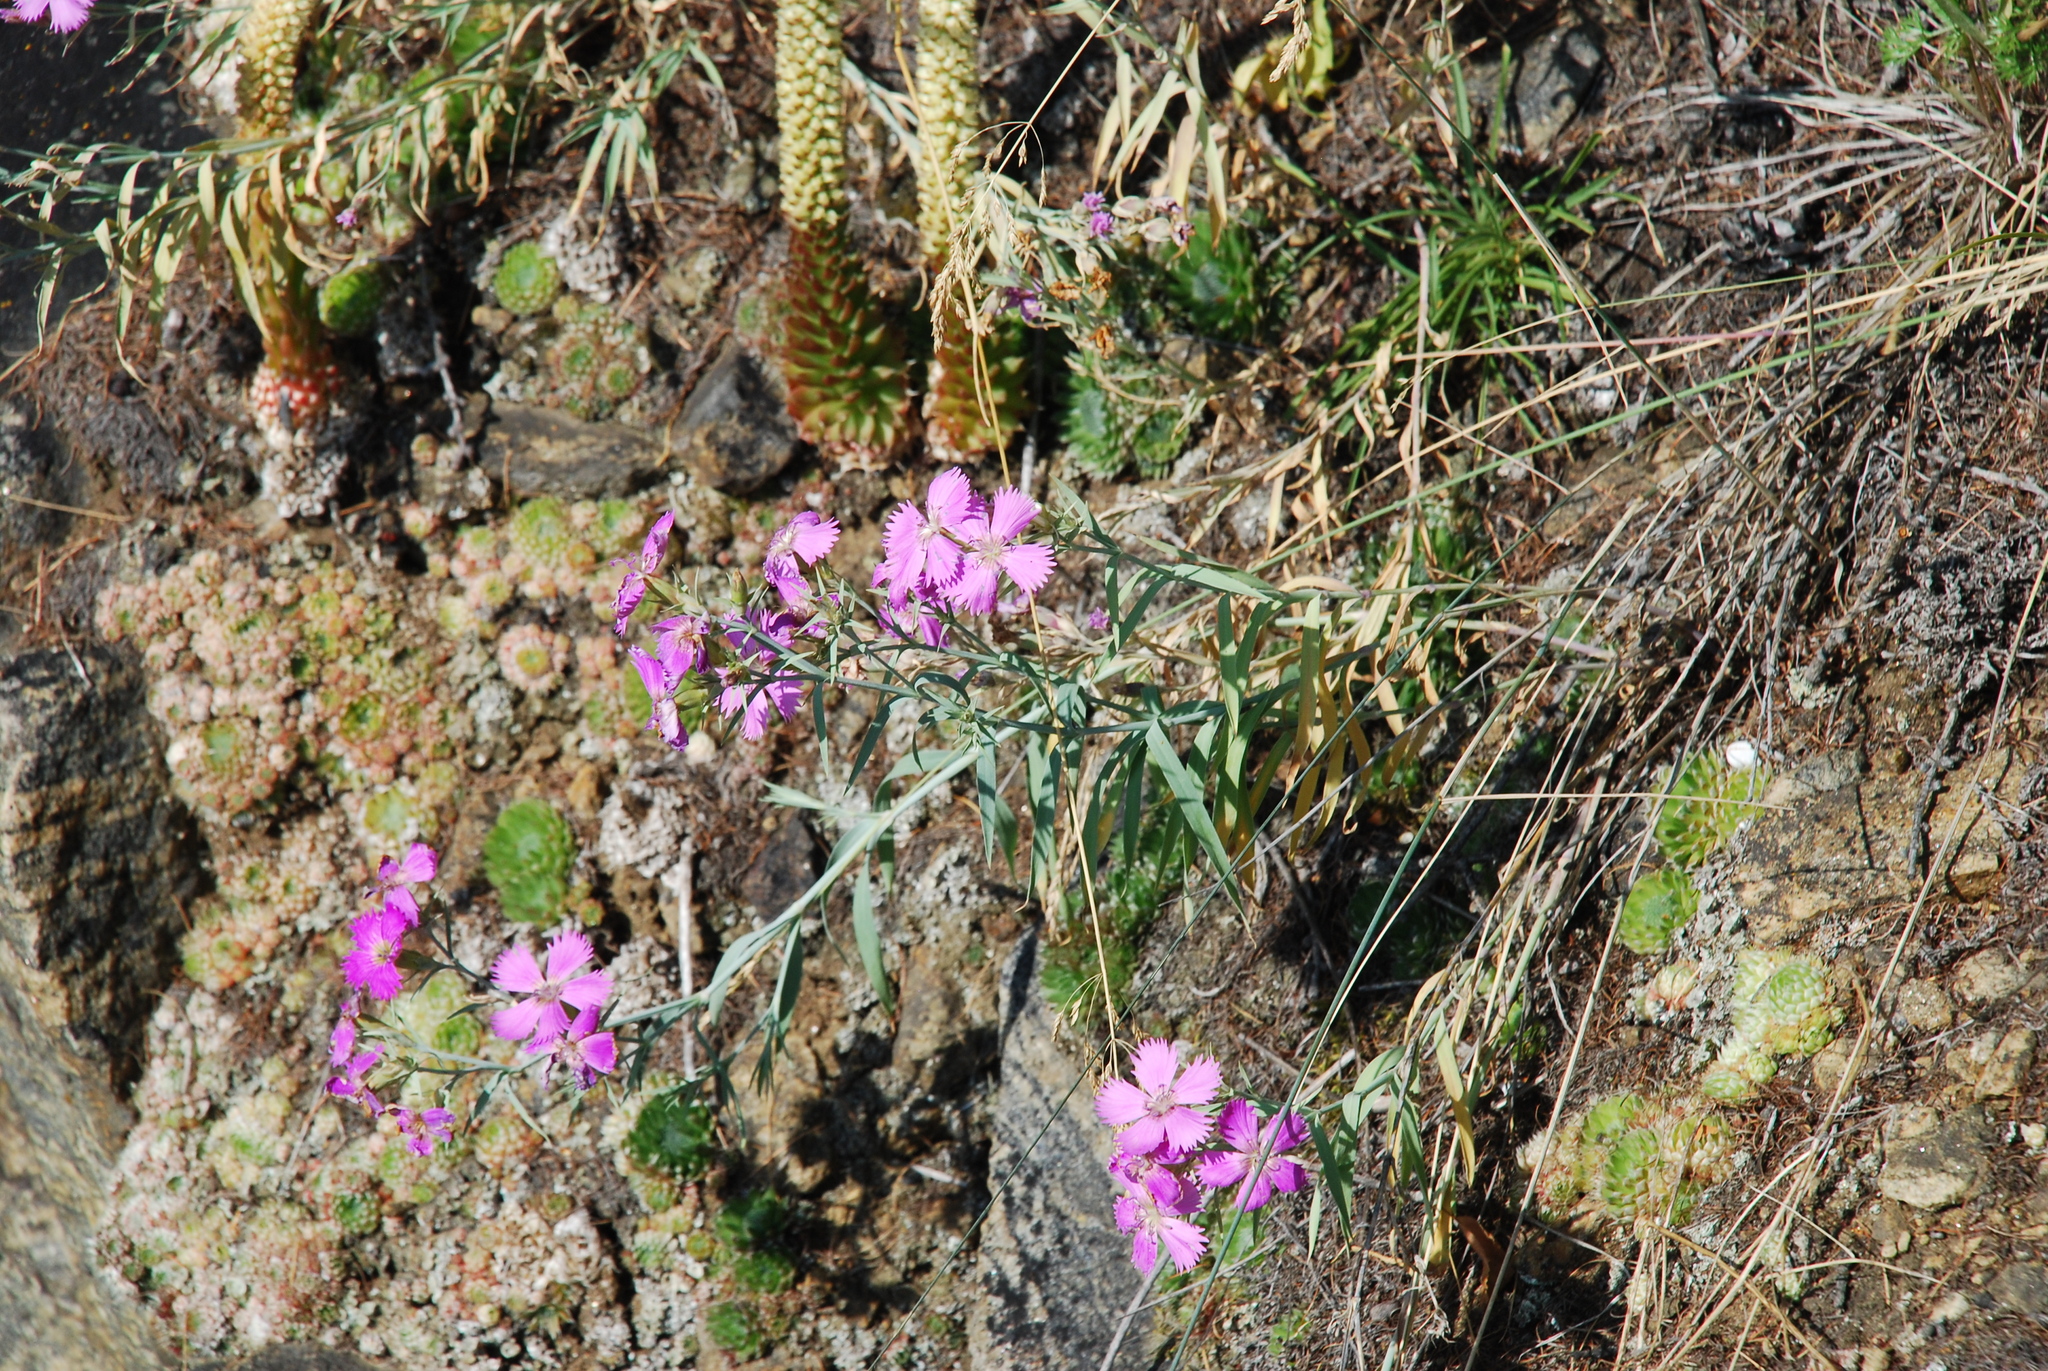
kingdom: Plantae
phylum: Tracheophyta
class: Magnoliopsida
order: Caryophyllales
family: Caryophyllaceae
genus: Dianthus
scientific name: Dianthus chinensis
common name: Rainbow pink
